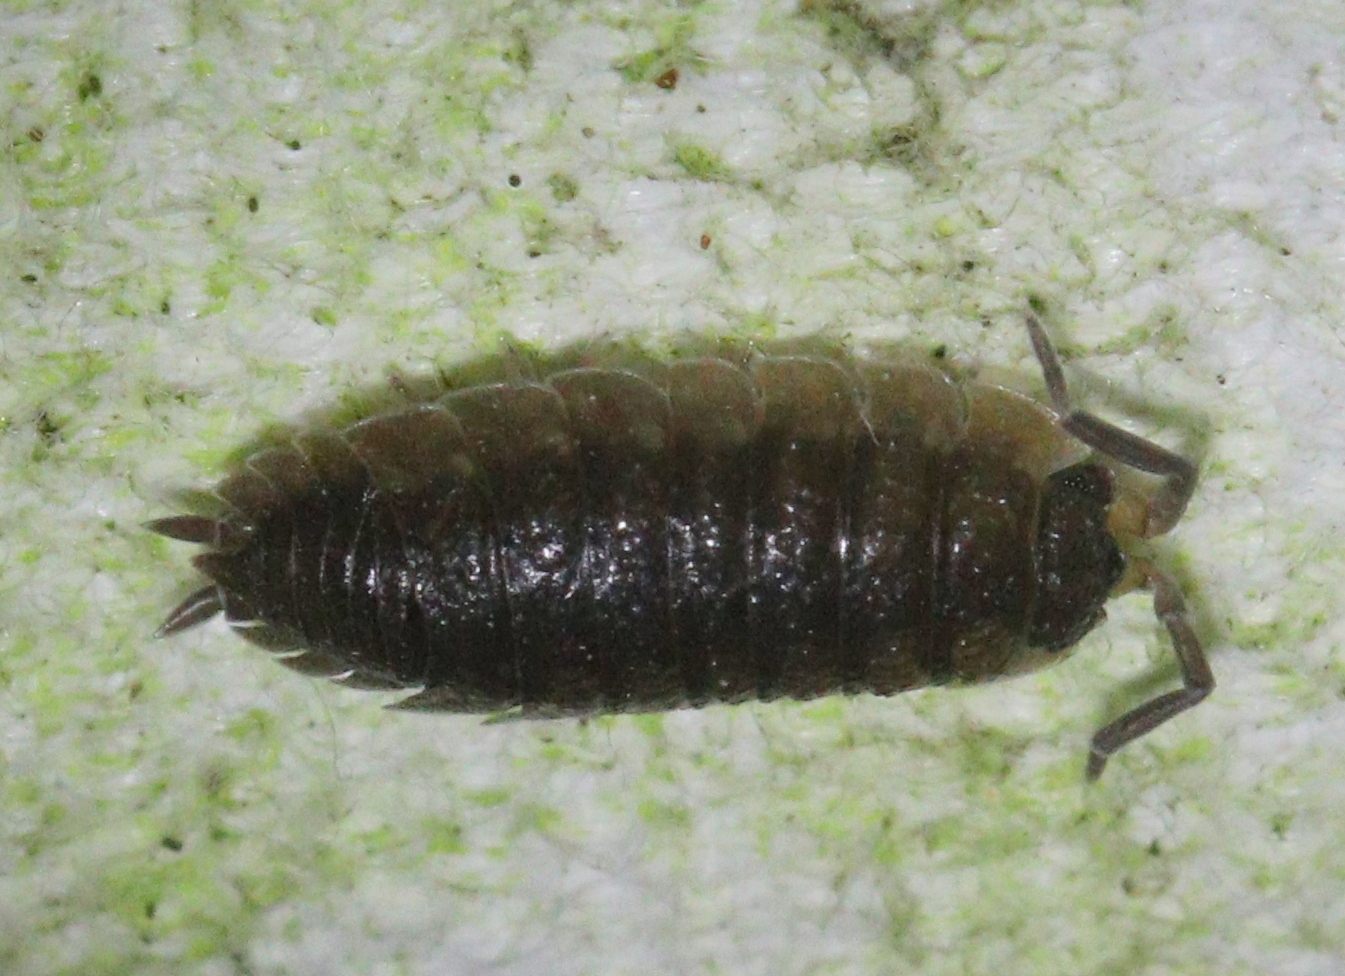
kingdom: Animalia
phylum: Arthropoda
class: Malacostraca
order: Isopoda
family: Porcellionidae
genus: Porcellio
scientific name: Porcellio scaber
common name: Common rough woodlouse
